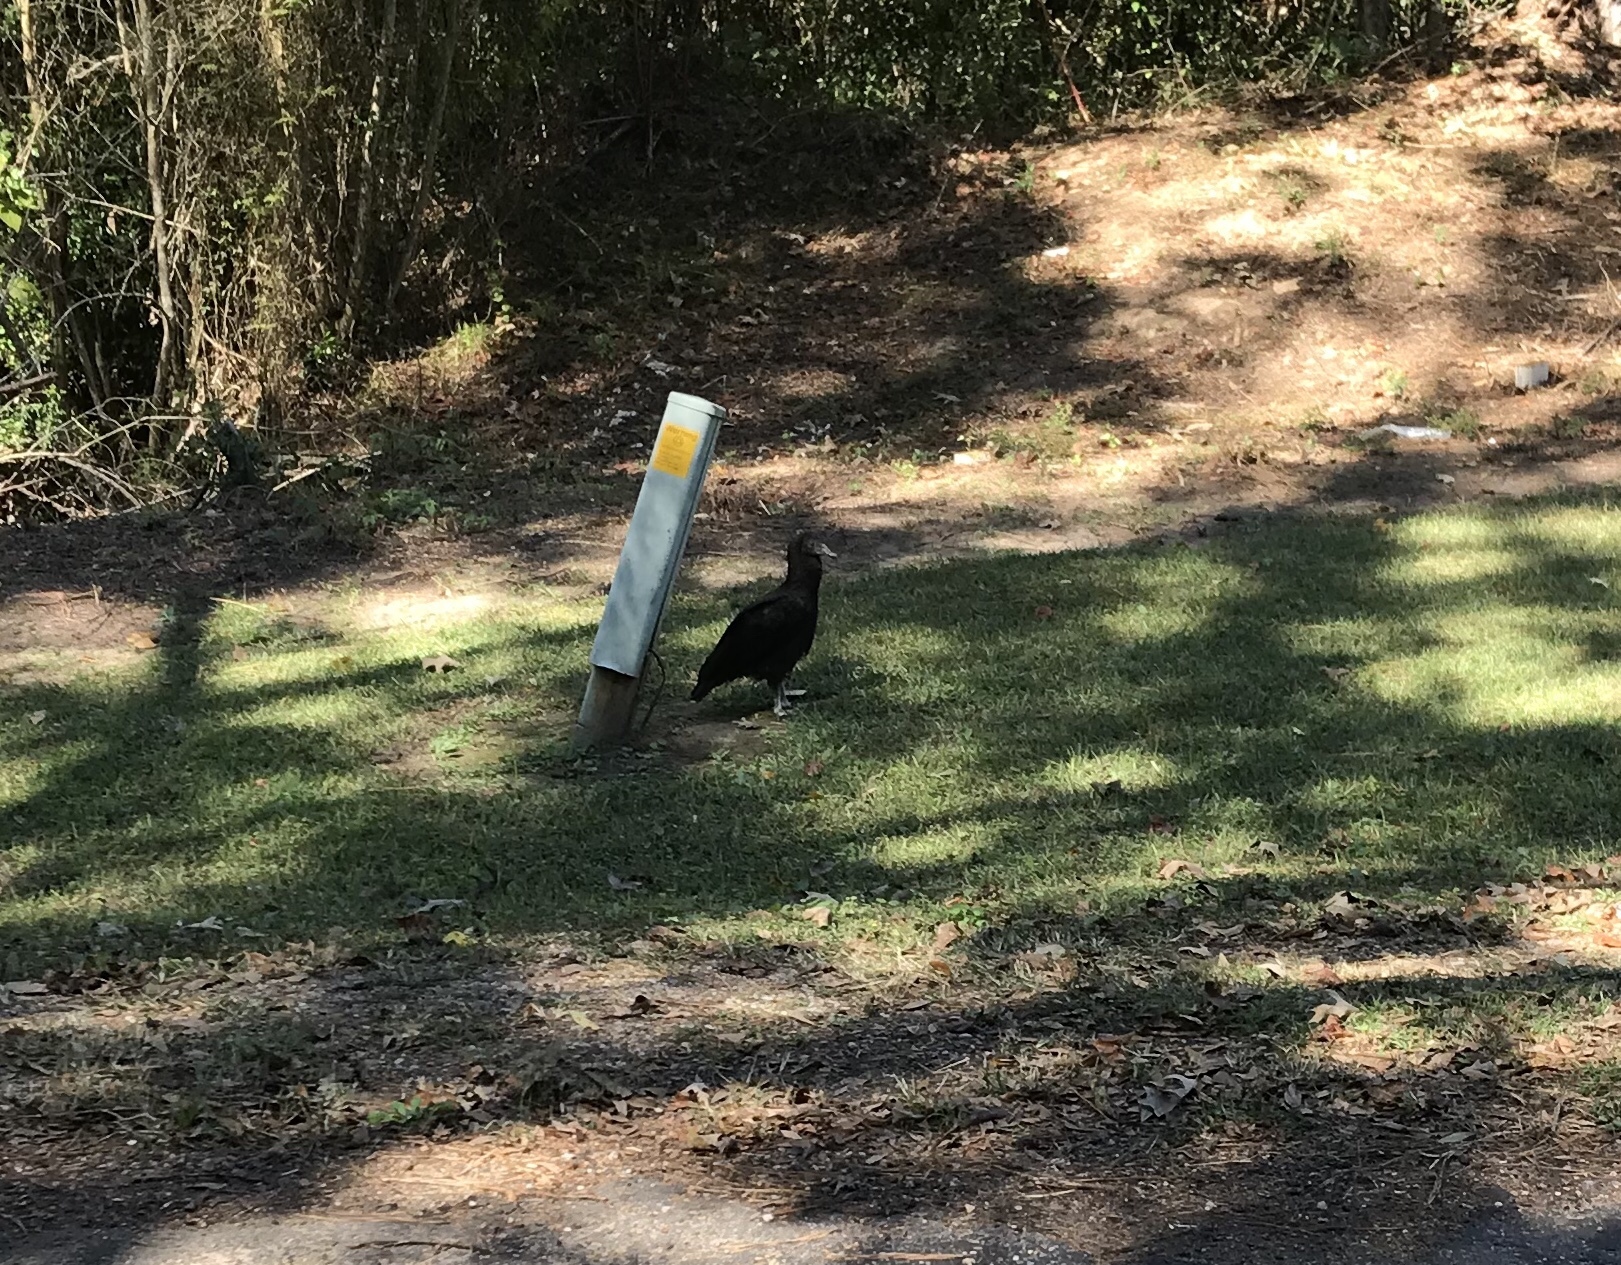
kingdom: Animalia
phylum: Chordata
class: Aves
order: Accipitriformes
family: Cathartidae
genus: Coragyps
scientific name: Coragyps atratus
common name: Black vulture
